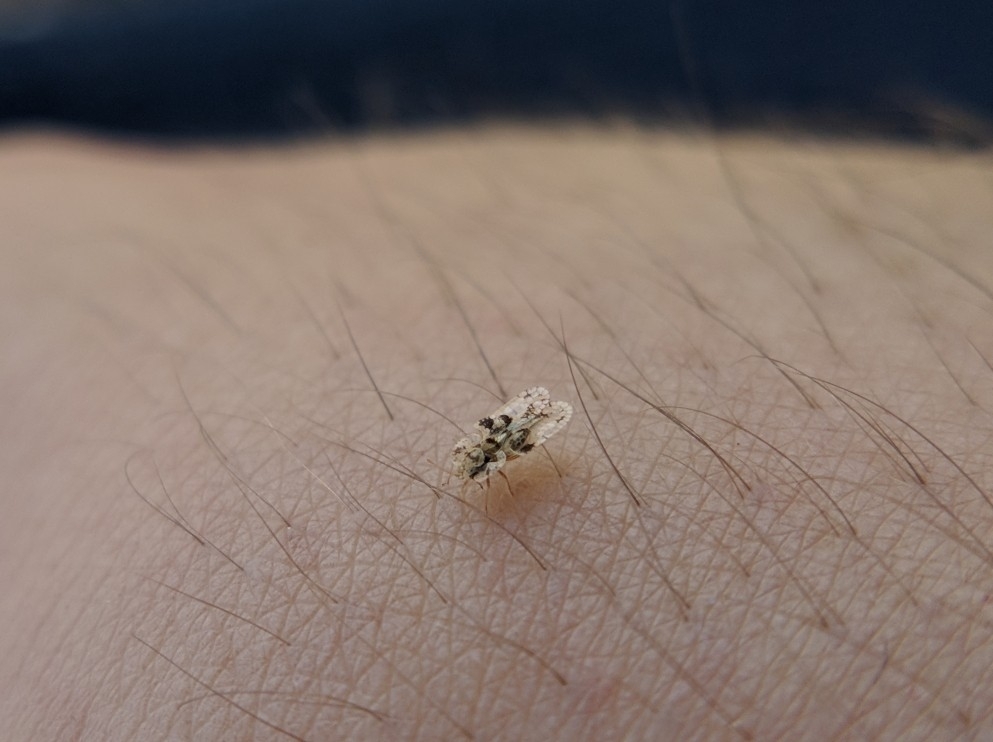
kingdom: Animalia
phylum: Arthropoda
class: Insecta
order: Hemiptera
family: Tingidae
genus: Corythucha
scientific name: Corythucha arcuata
